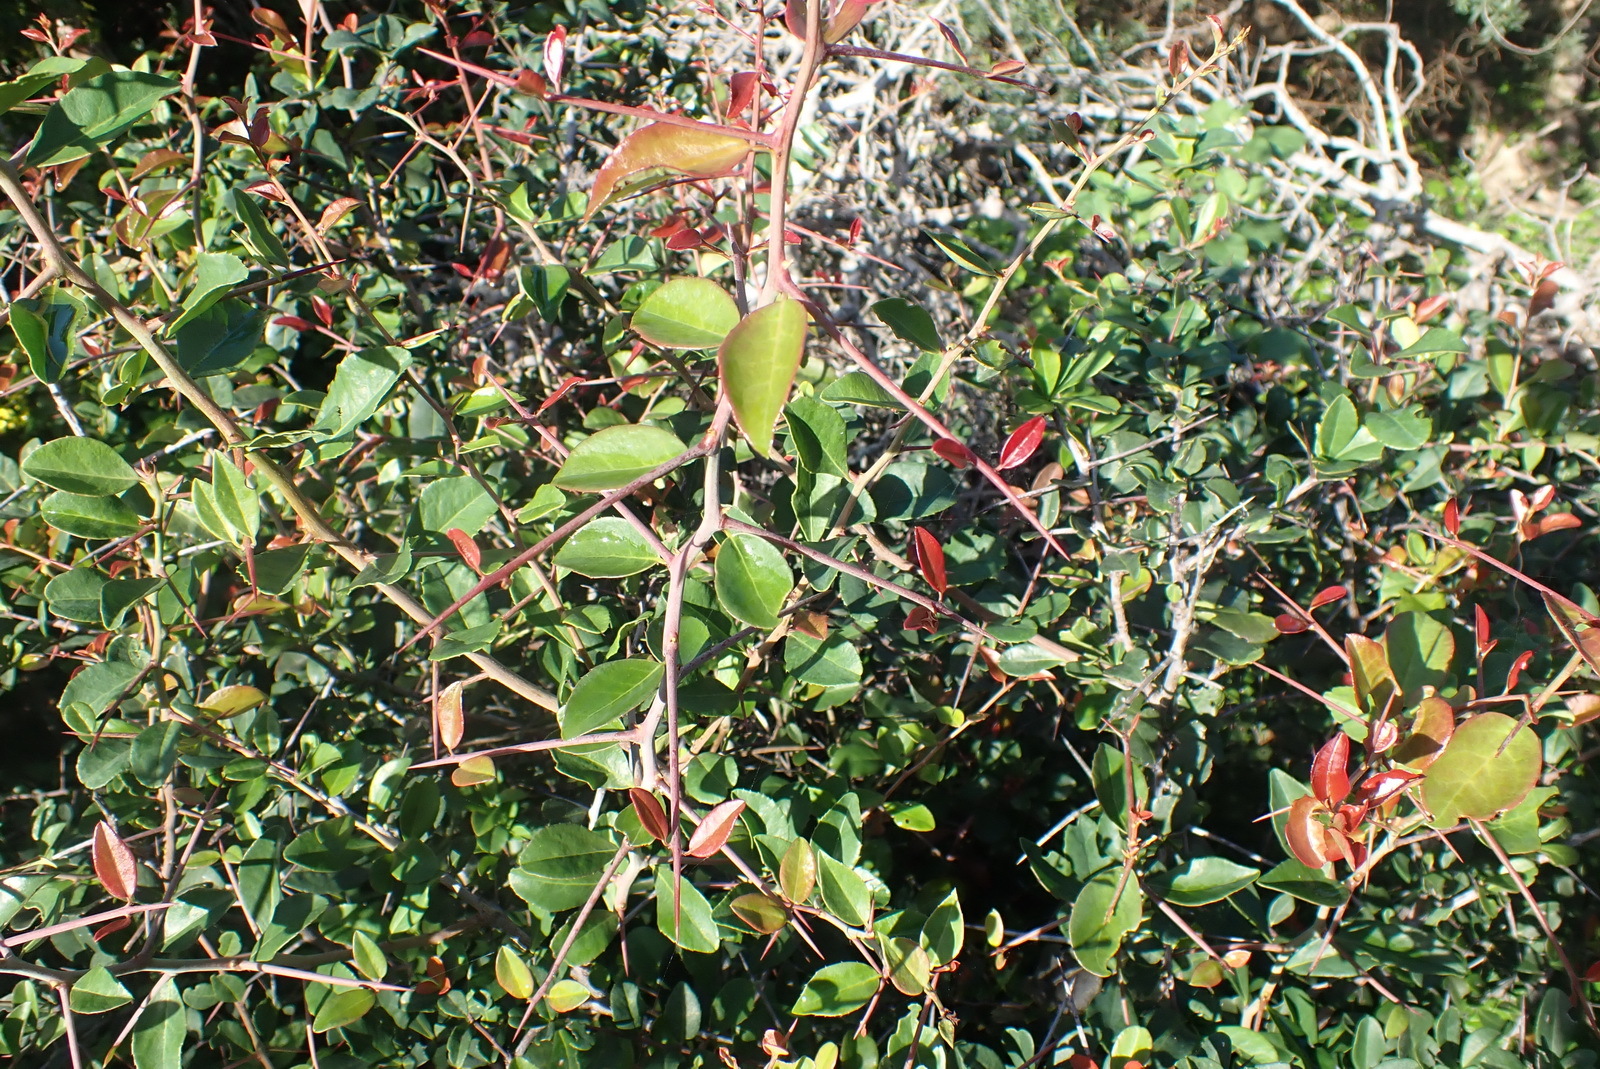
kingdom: Plantae
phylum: Tracheophyta
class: Magnoliopsida
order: Celastrales
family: Celastraceae
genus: Gymnosporia
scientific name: Gymnosporia nemorosa
